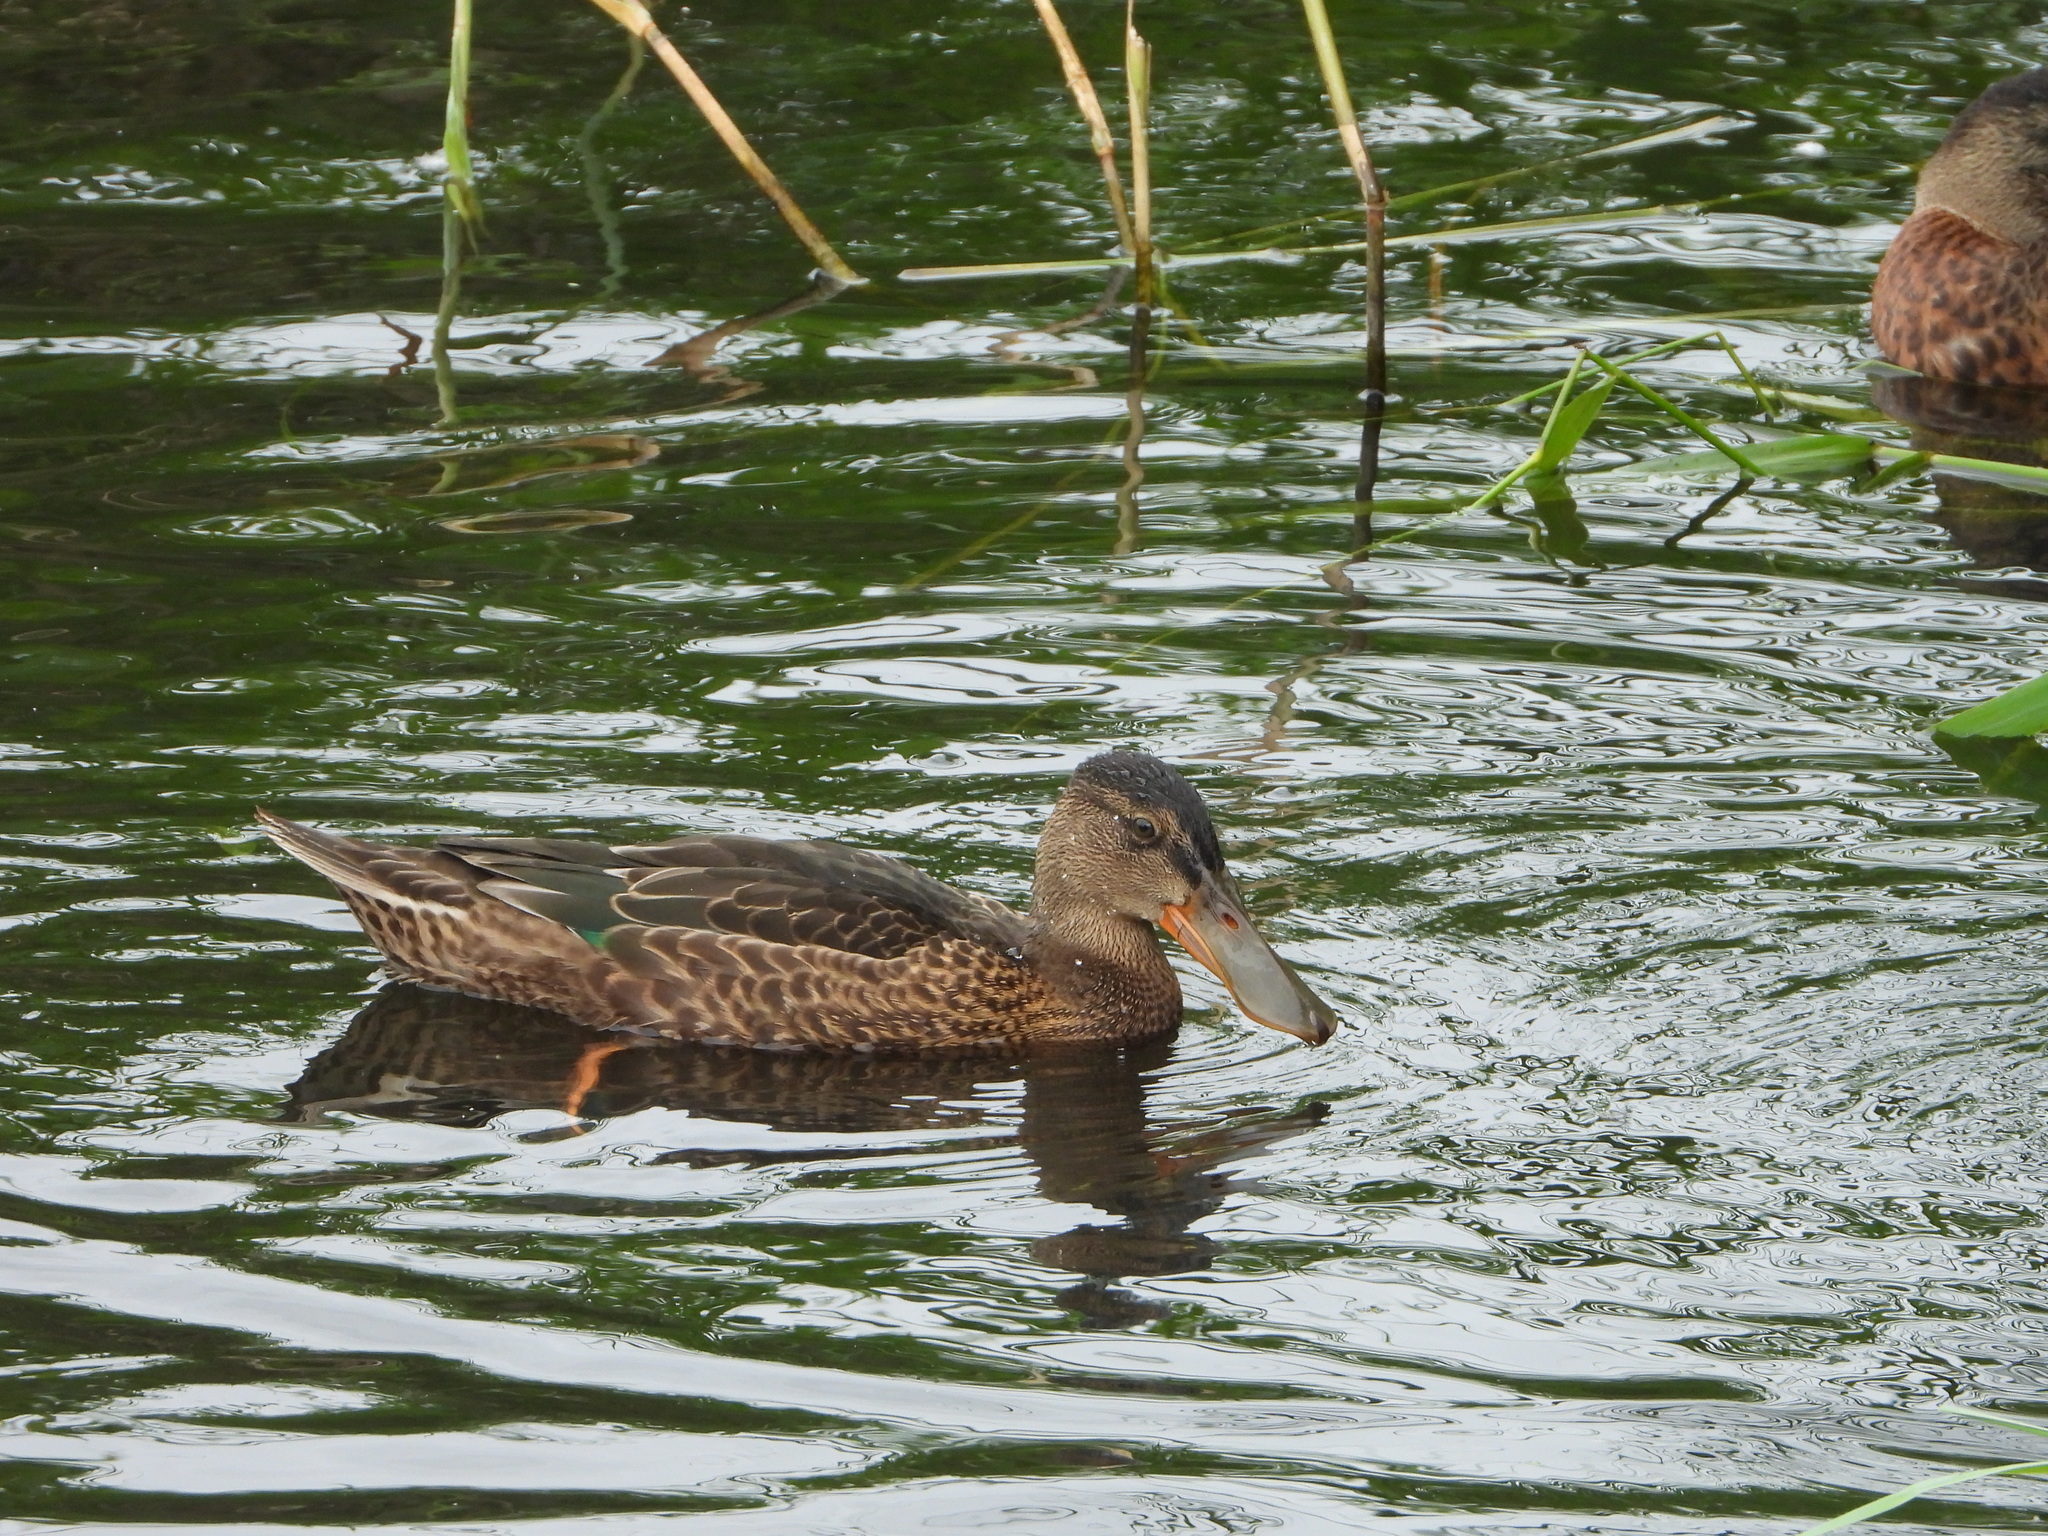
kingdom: Animalia
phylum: Chordata
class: Aves
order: Anseriformes
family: Anatidae
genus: Spatula
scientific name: Spatula clypeata
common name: Northern shoveler
